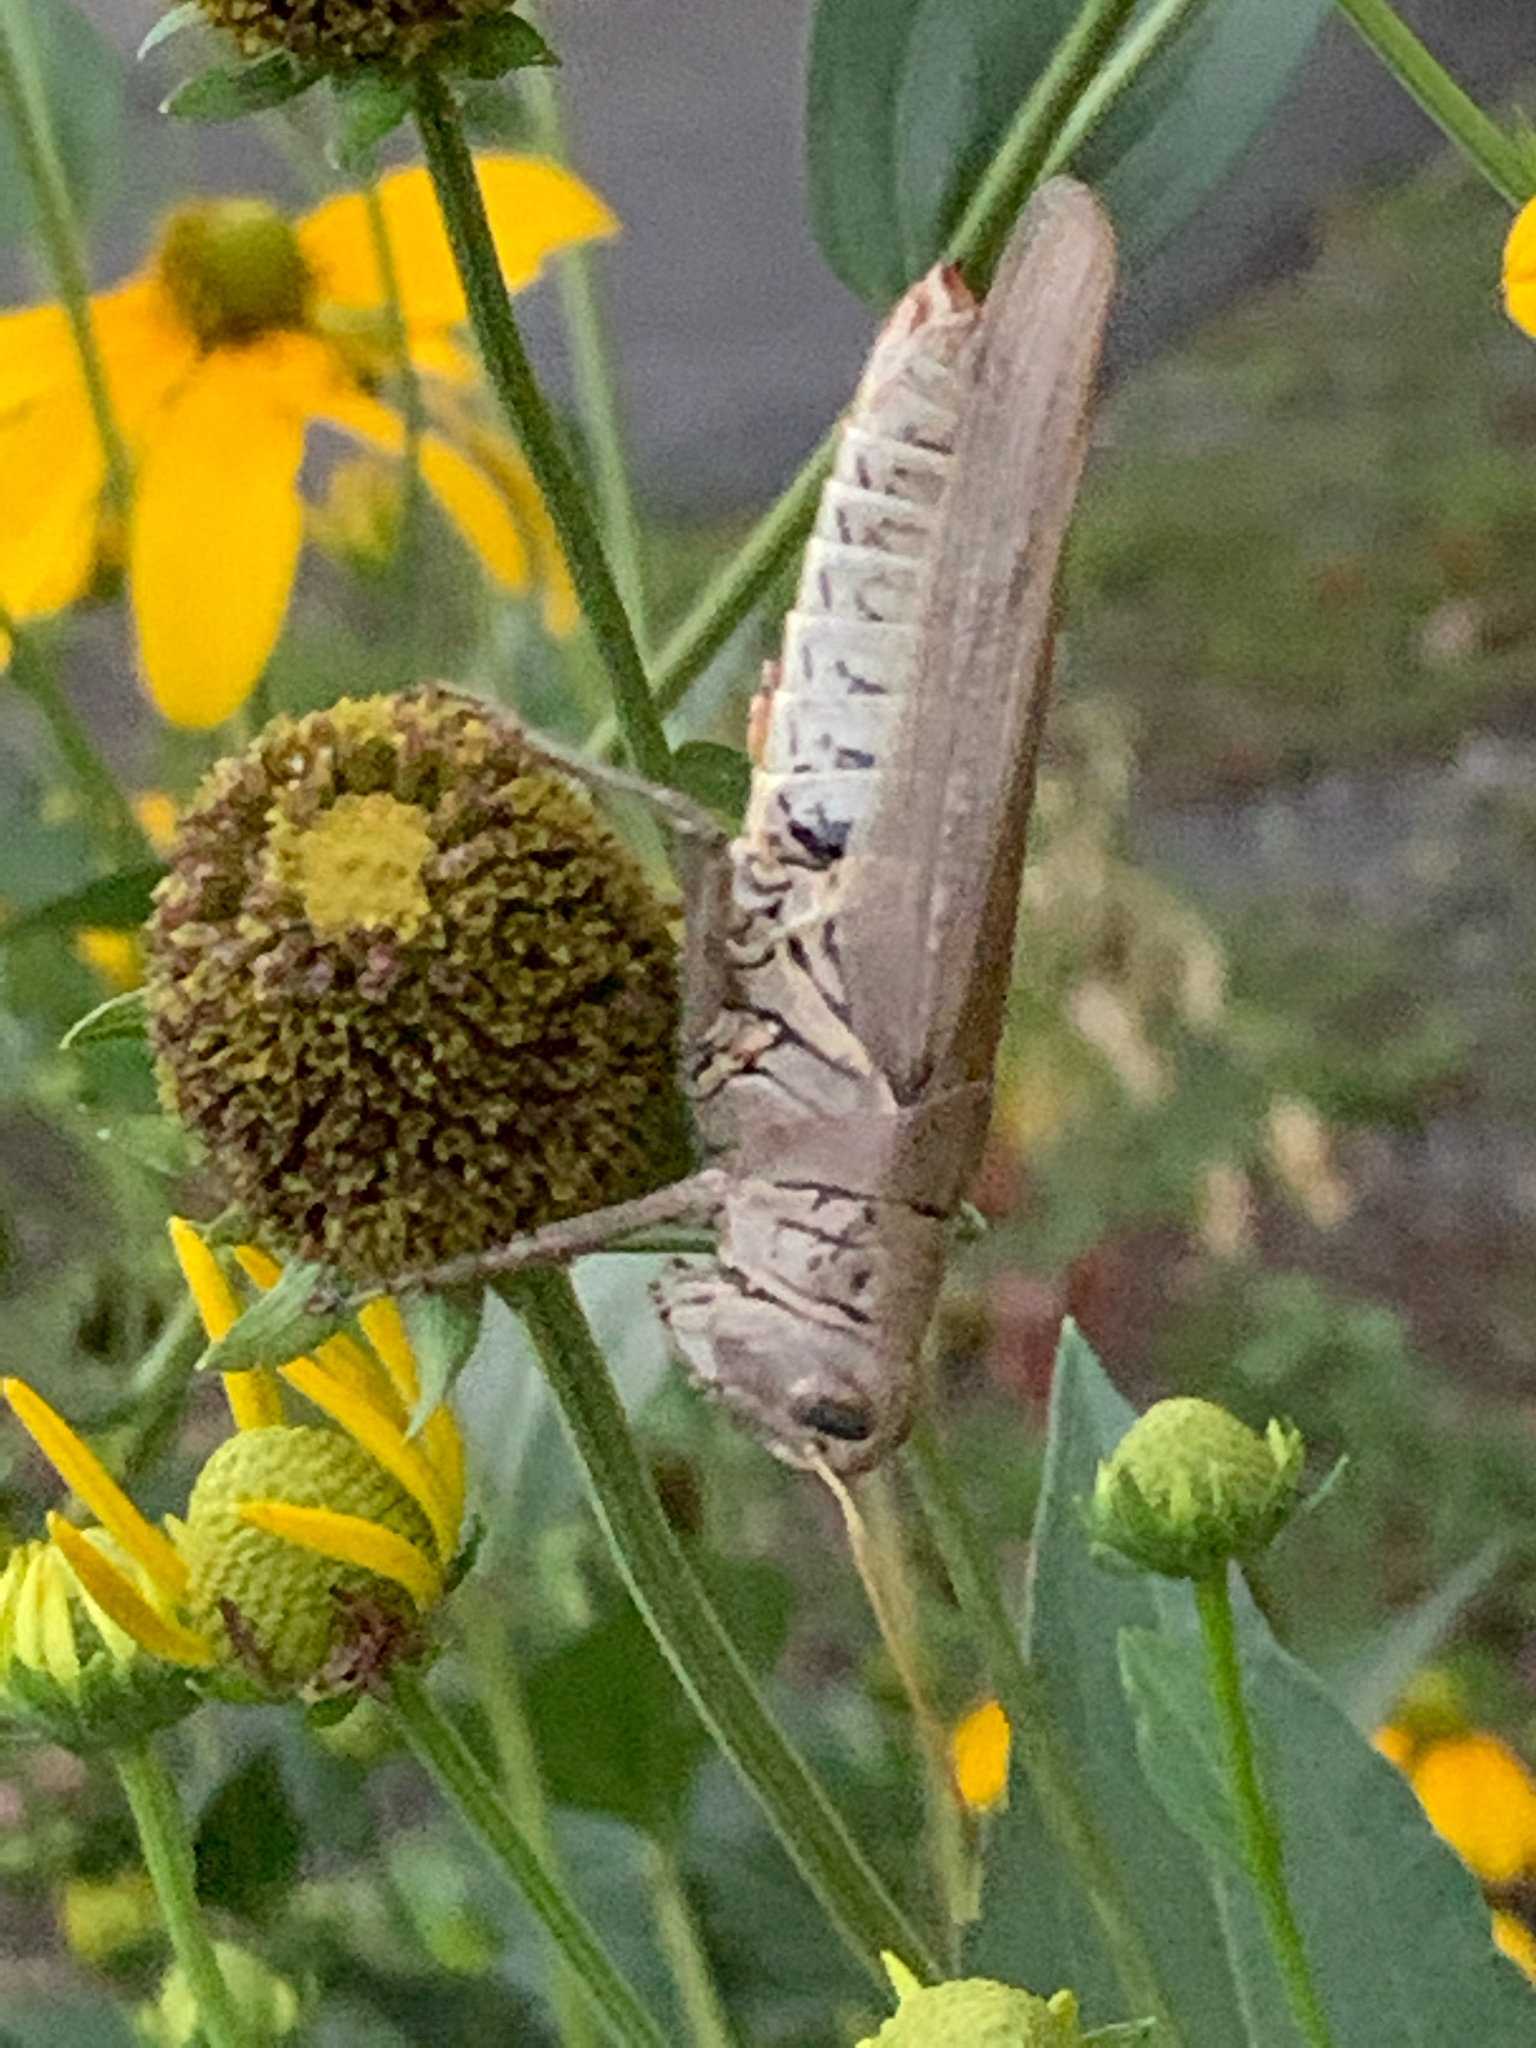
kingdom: Animalia
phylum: Arthropoda
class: Insecta
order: Orthoptera
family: Acrididae
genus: Melanoplus
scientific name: Melanoplus differentialis
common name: Differential grasshopper
